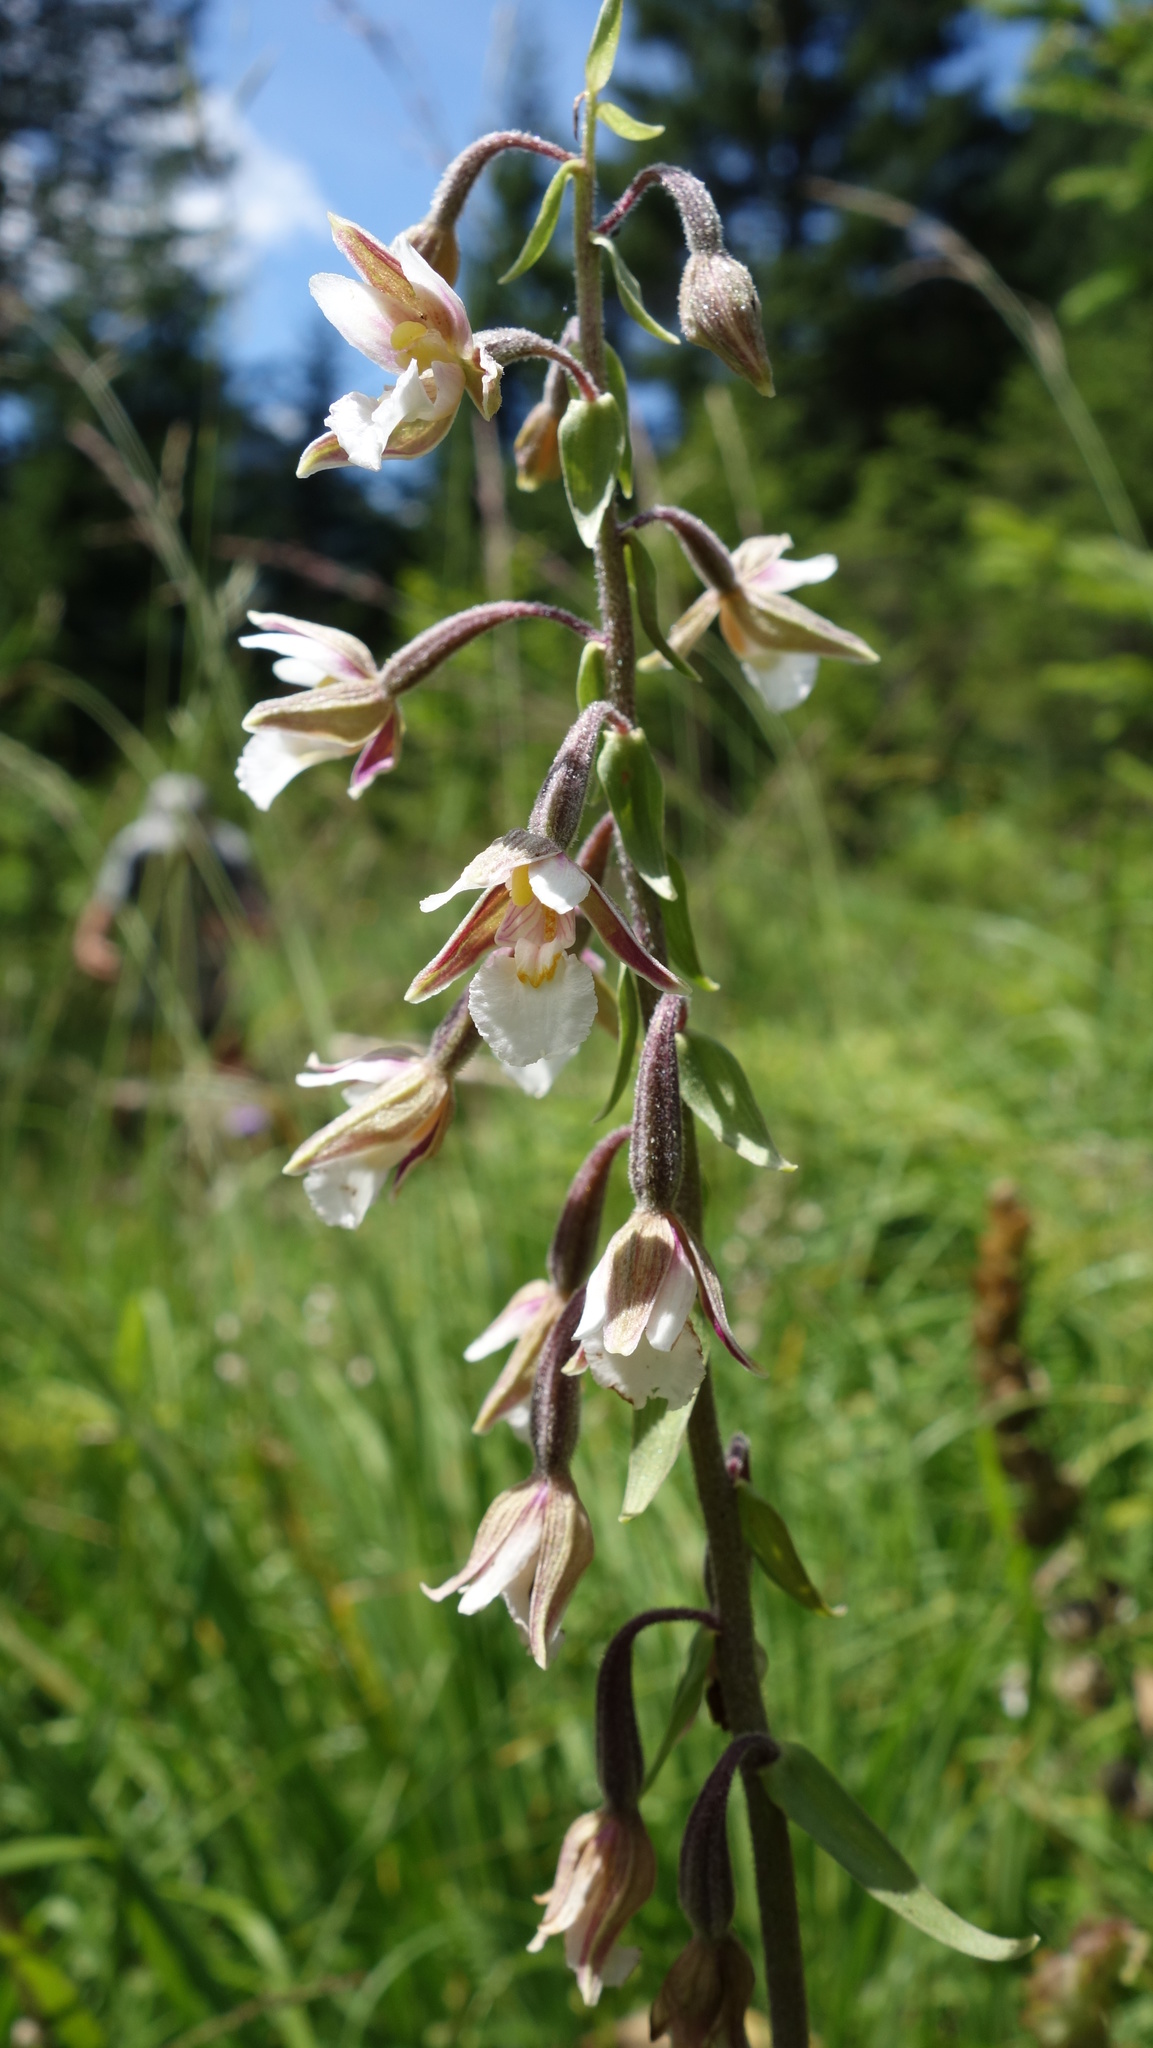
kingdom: Plantae
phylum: Tracheophyta
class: Liliopsida
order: Asparagales
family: Orchidaceae
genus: Epipactis
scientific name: Epipactis palustris
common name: Marsh helleborine
